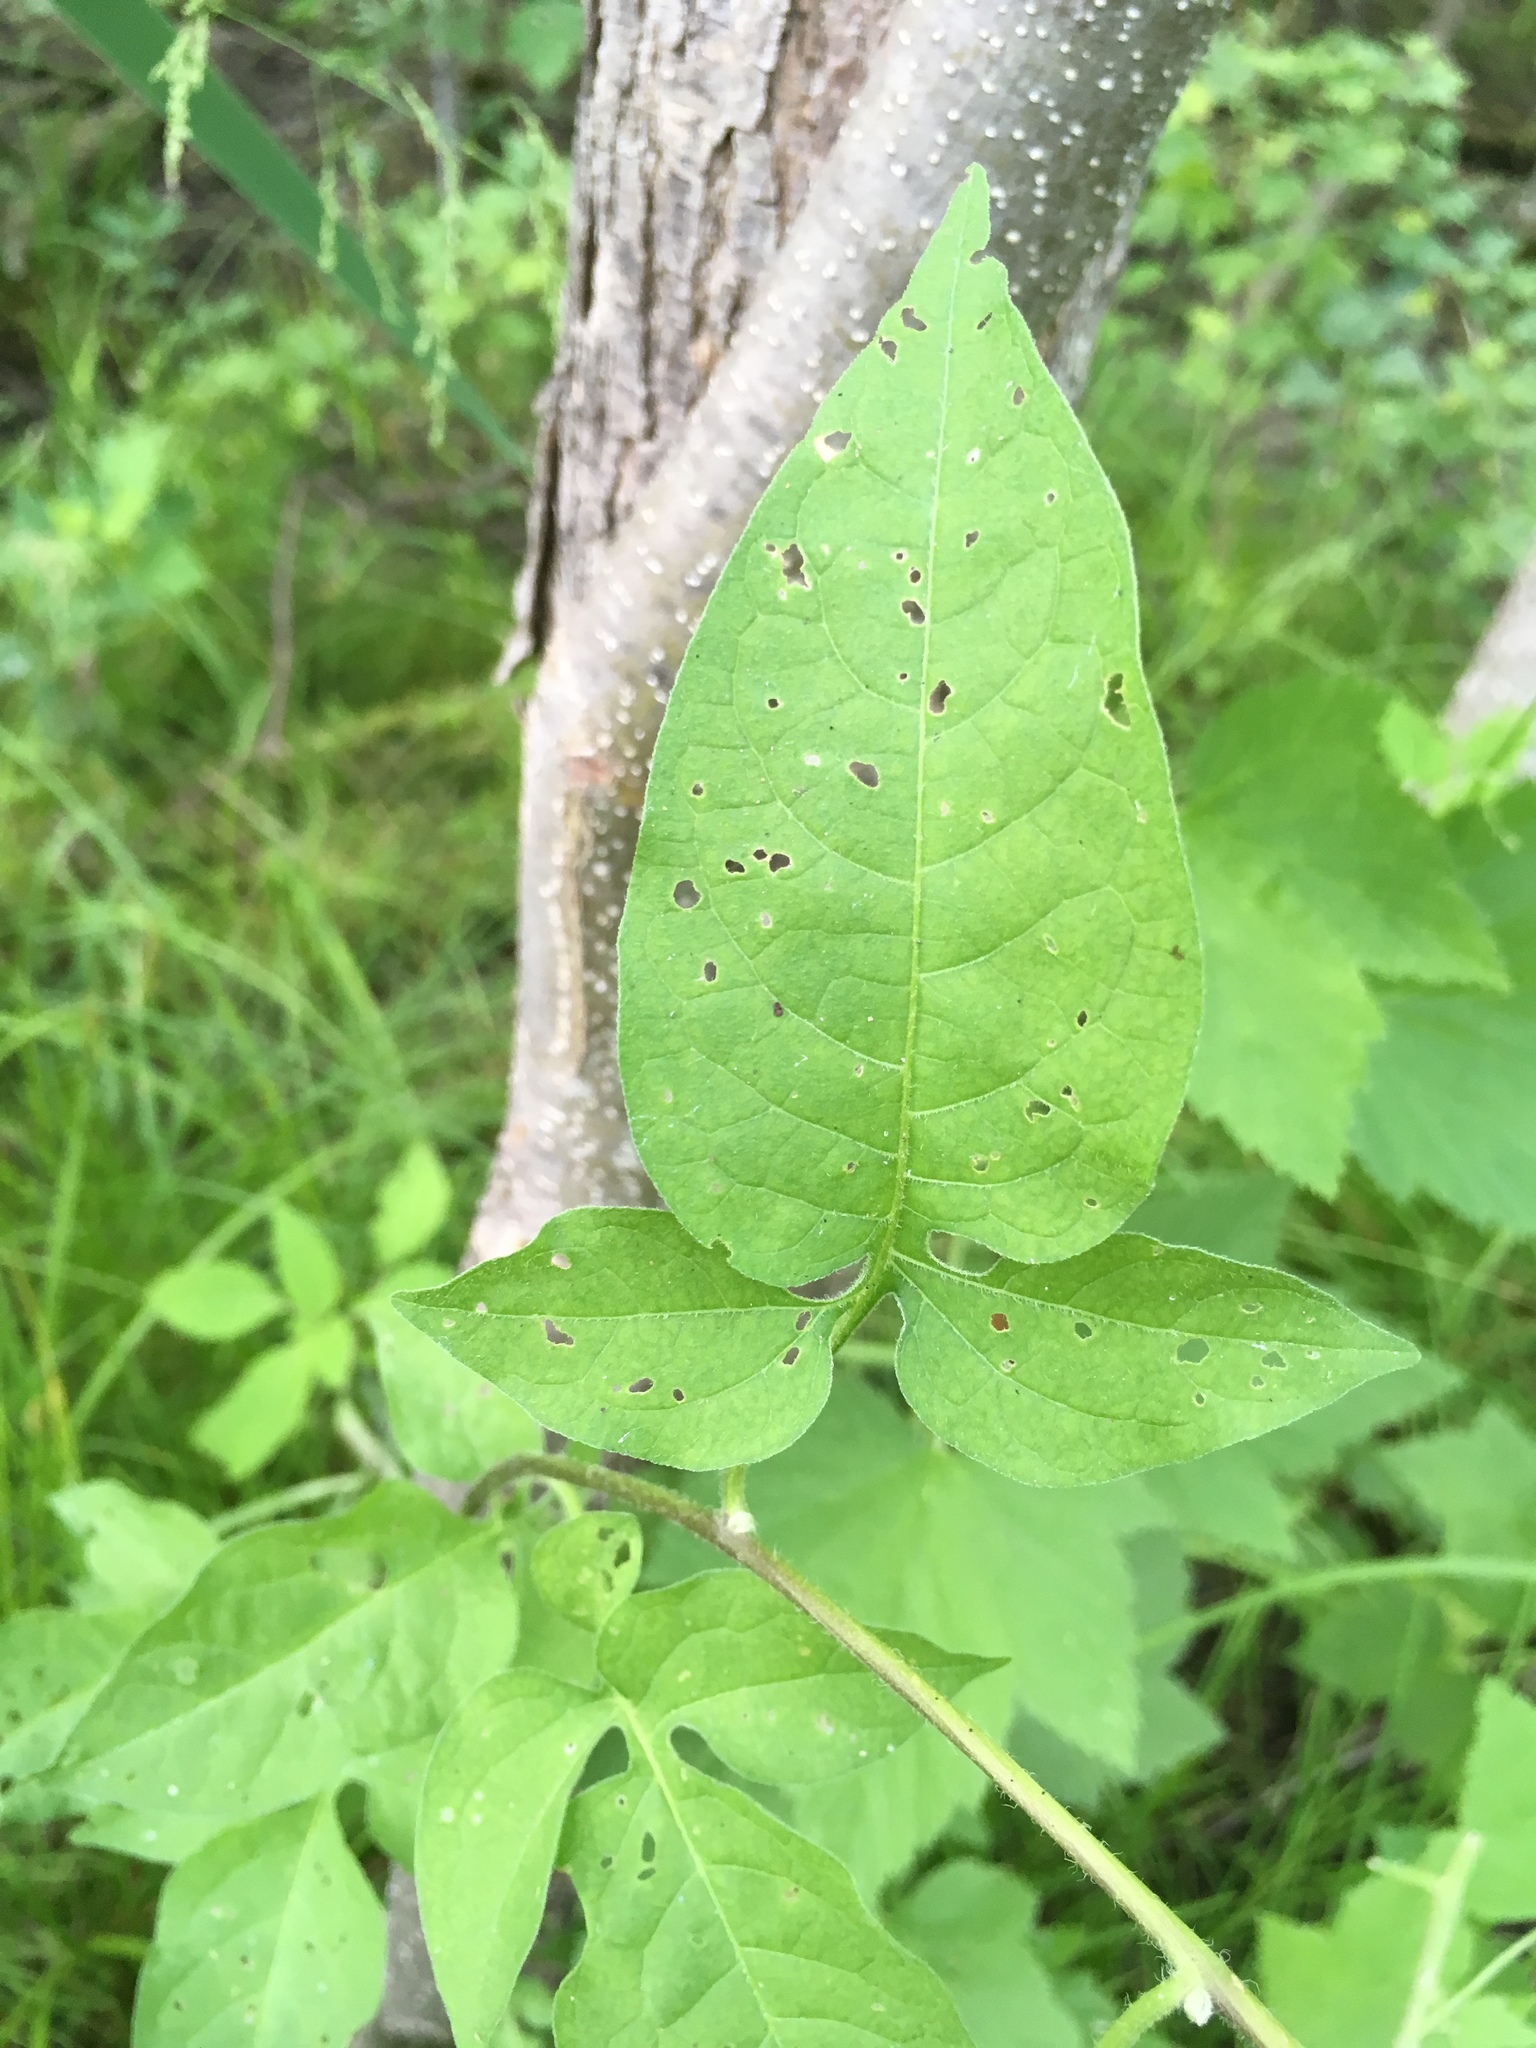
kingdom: Plantae
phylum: Tracheophyta
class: Magnoliopsida
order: Solanales
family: Solanaceae
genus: Solanum
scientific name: Solanum dulcamara
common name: Climbing nightshade
